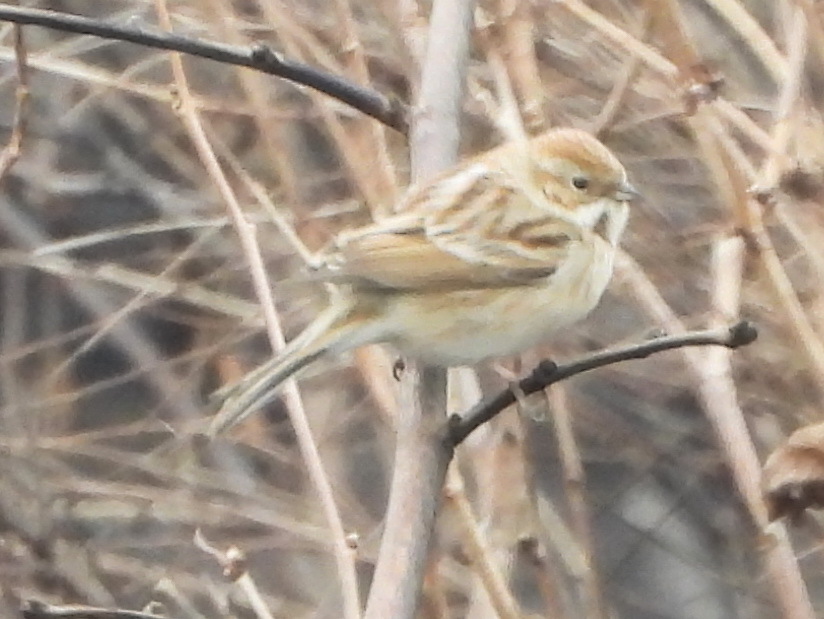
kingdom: Animalia
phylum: Chordata
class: Aves
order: Passeriformes
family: Emberizidae
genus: Emberiza
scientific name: Emberiza pallasi
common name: Pallas's reed bunting
